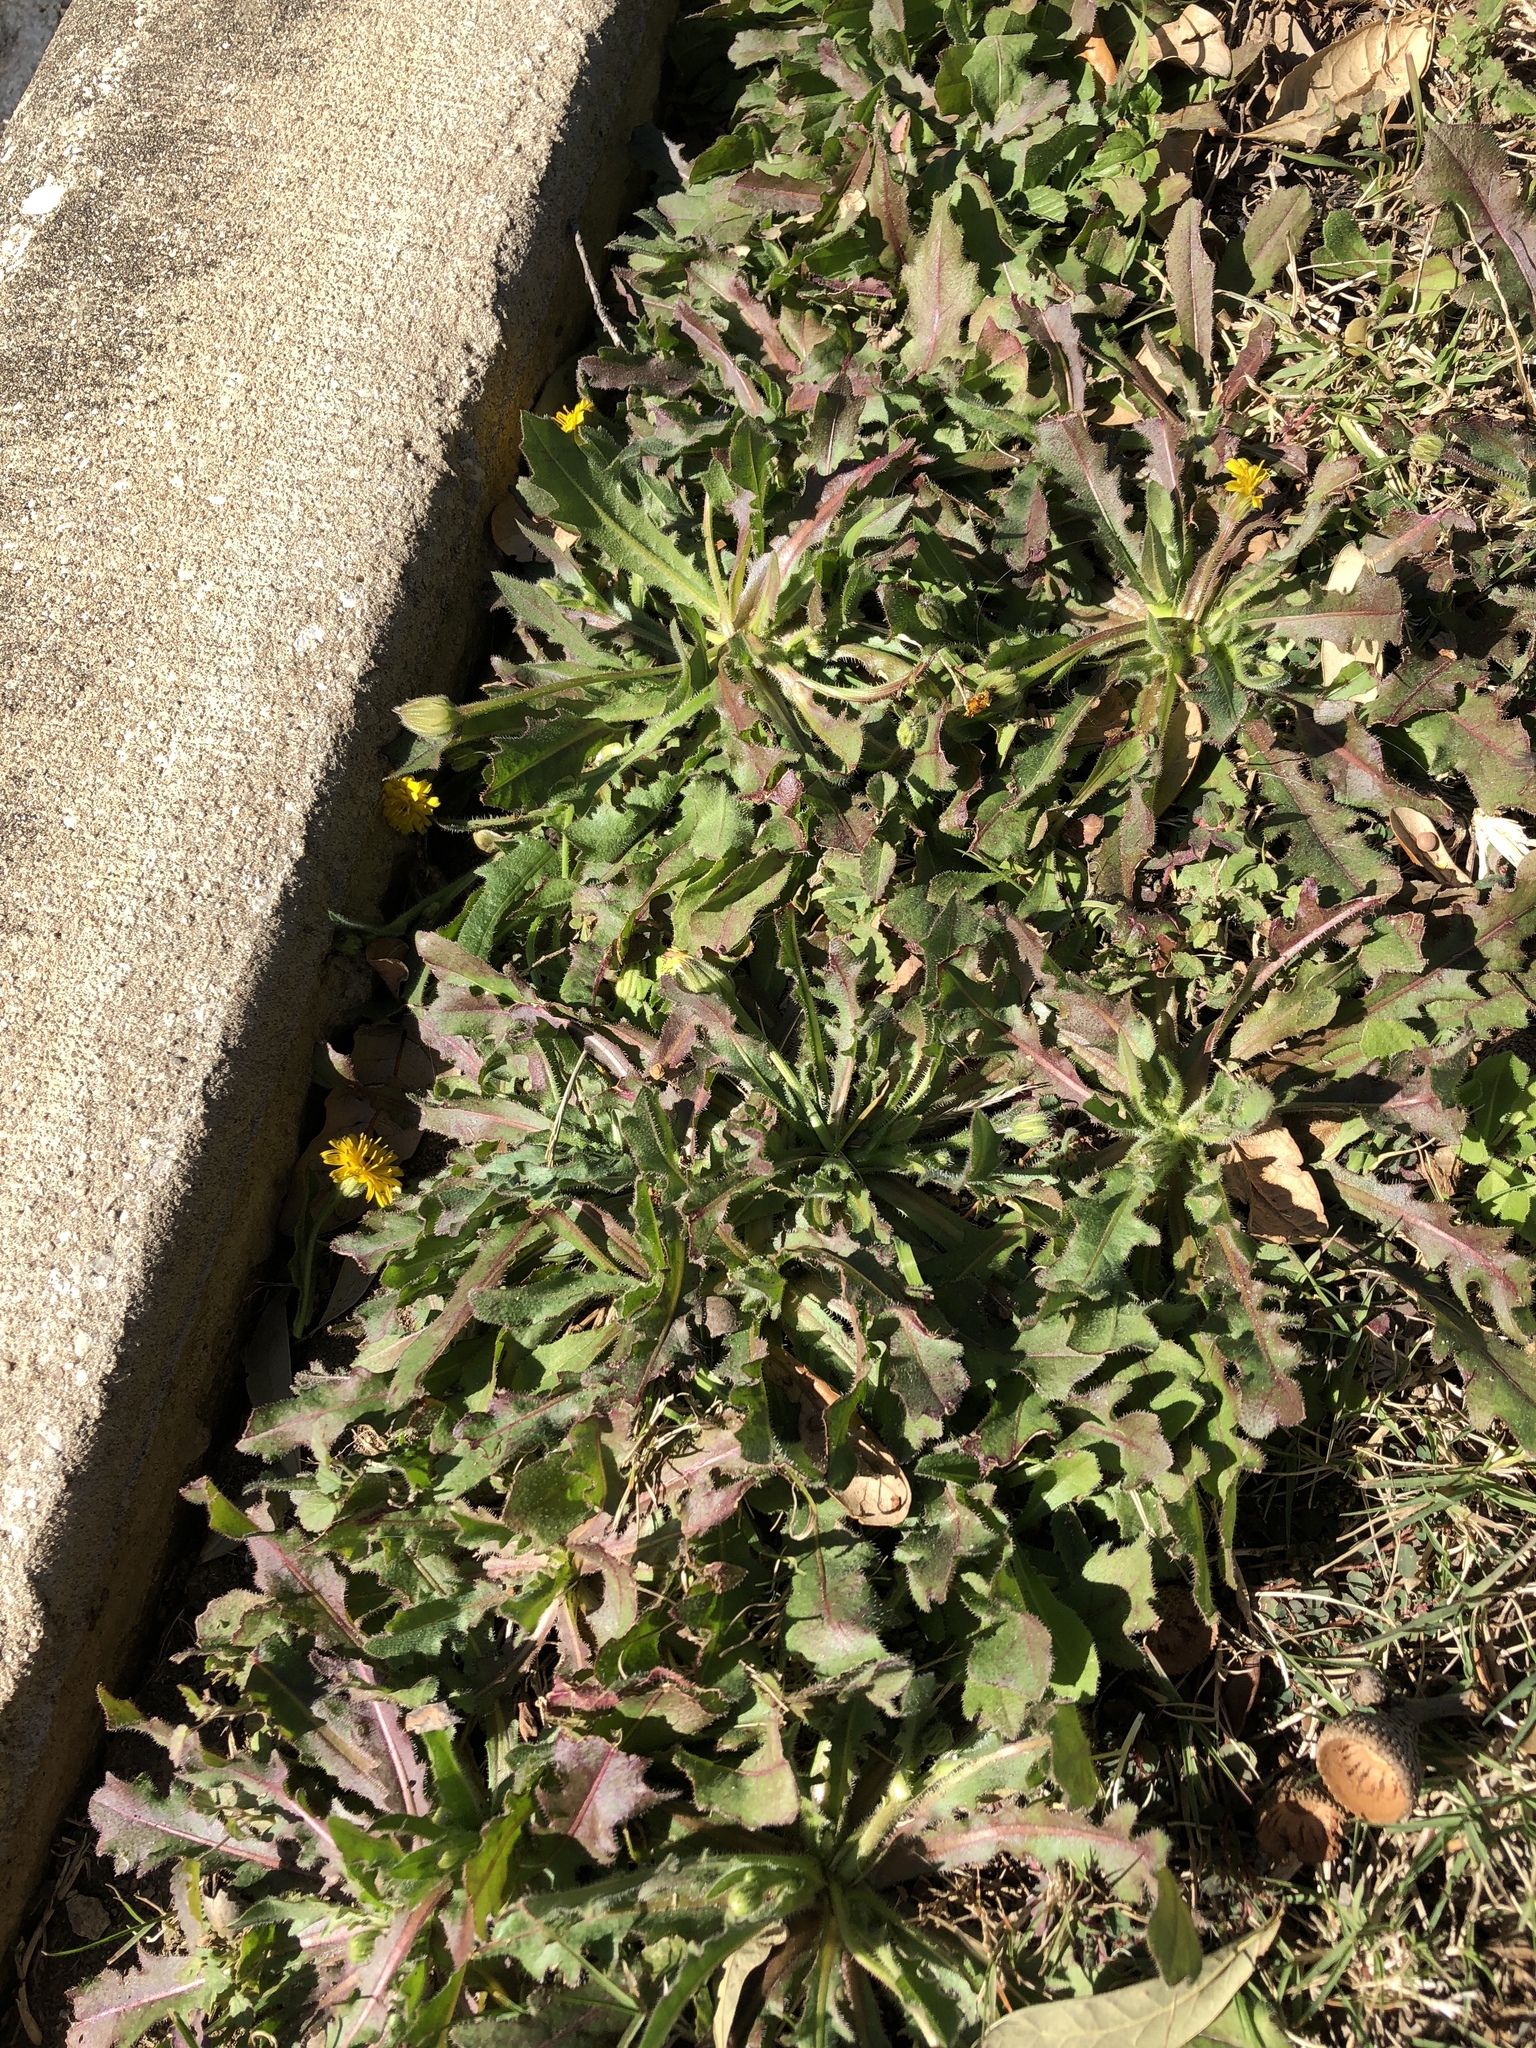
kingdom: Plantae
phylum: Tracheophyta
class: Magnoliopsida
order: Asterales
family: Asteraceae
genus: Hedypnois
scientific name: Hedypnois rhagadioloides
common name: Cretan weed
